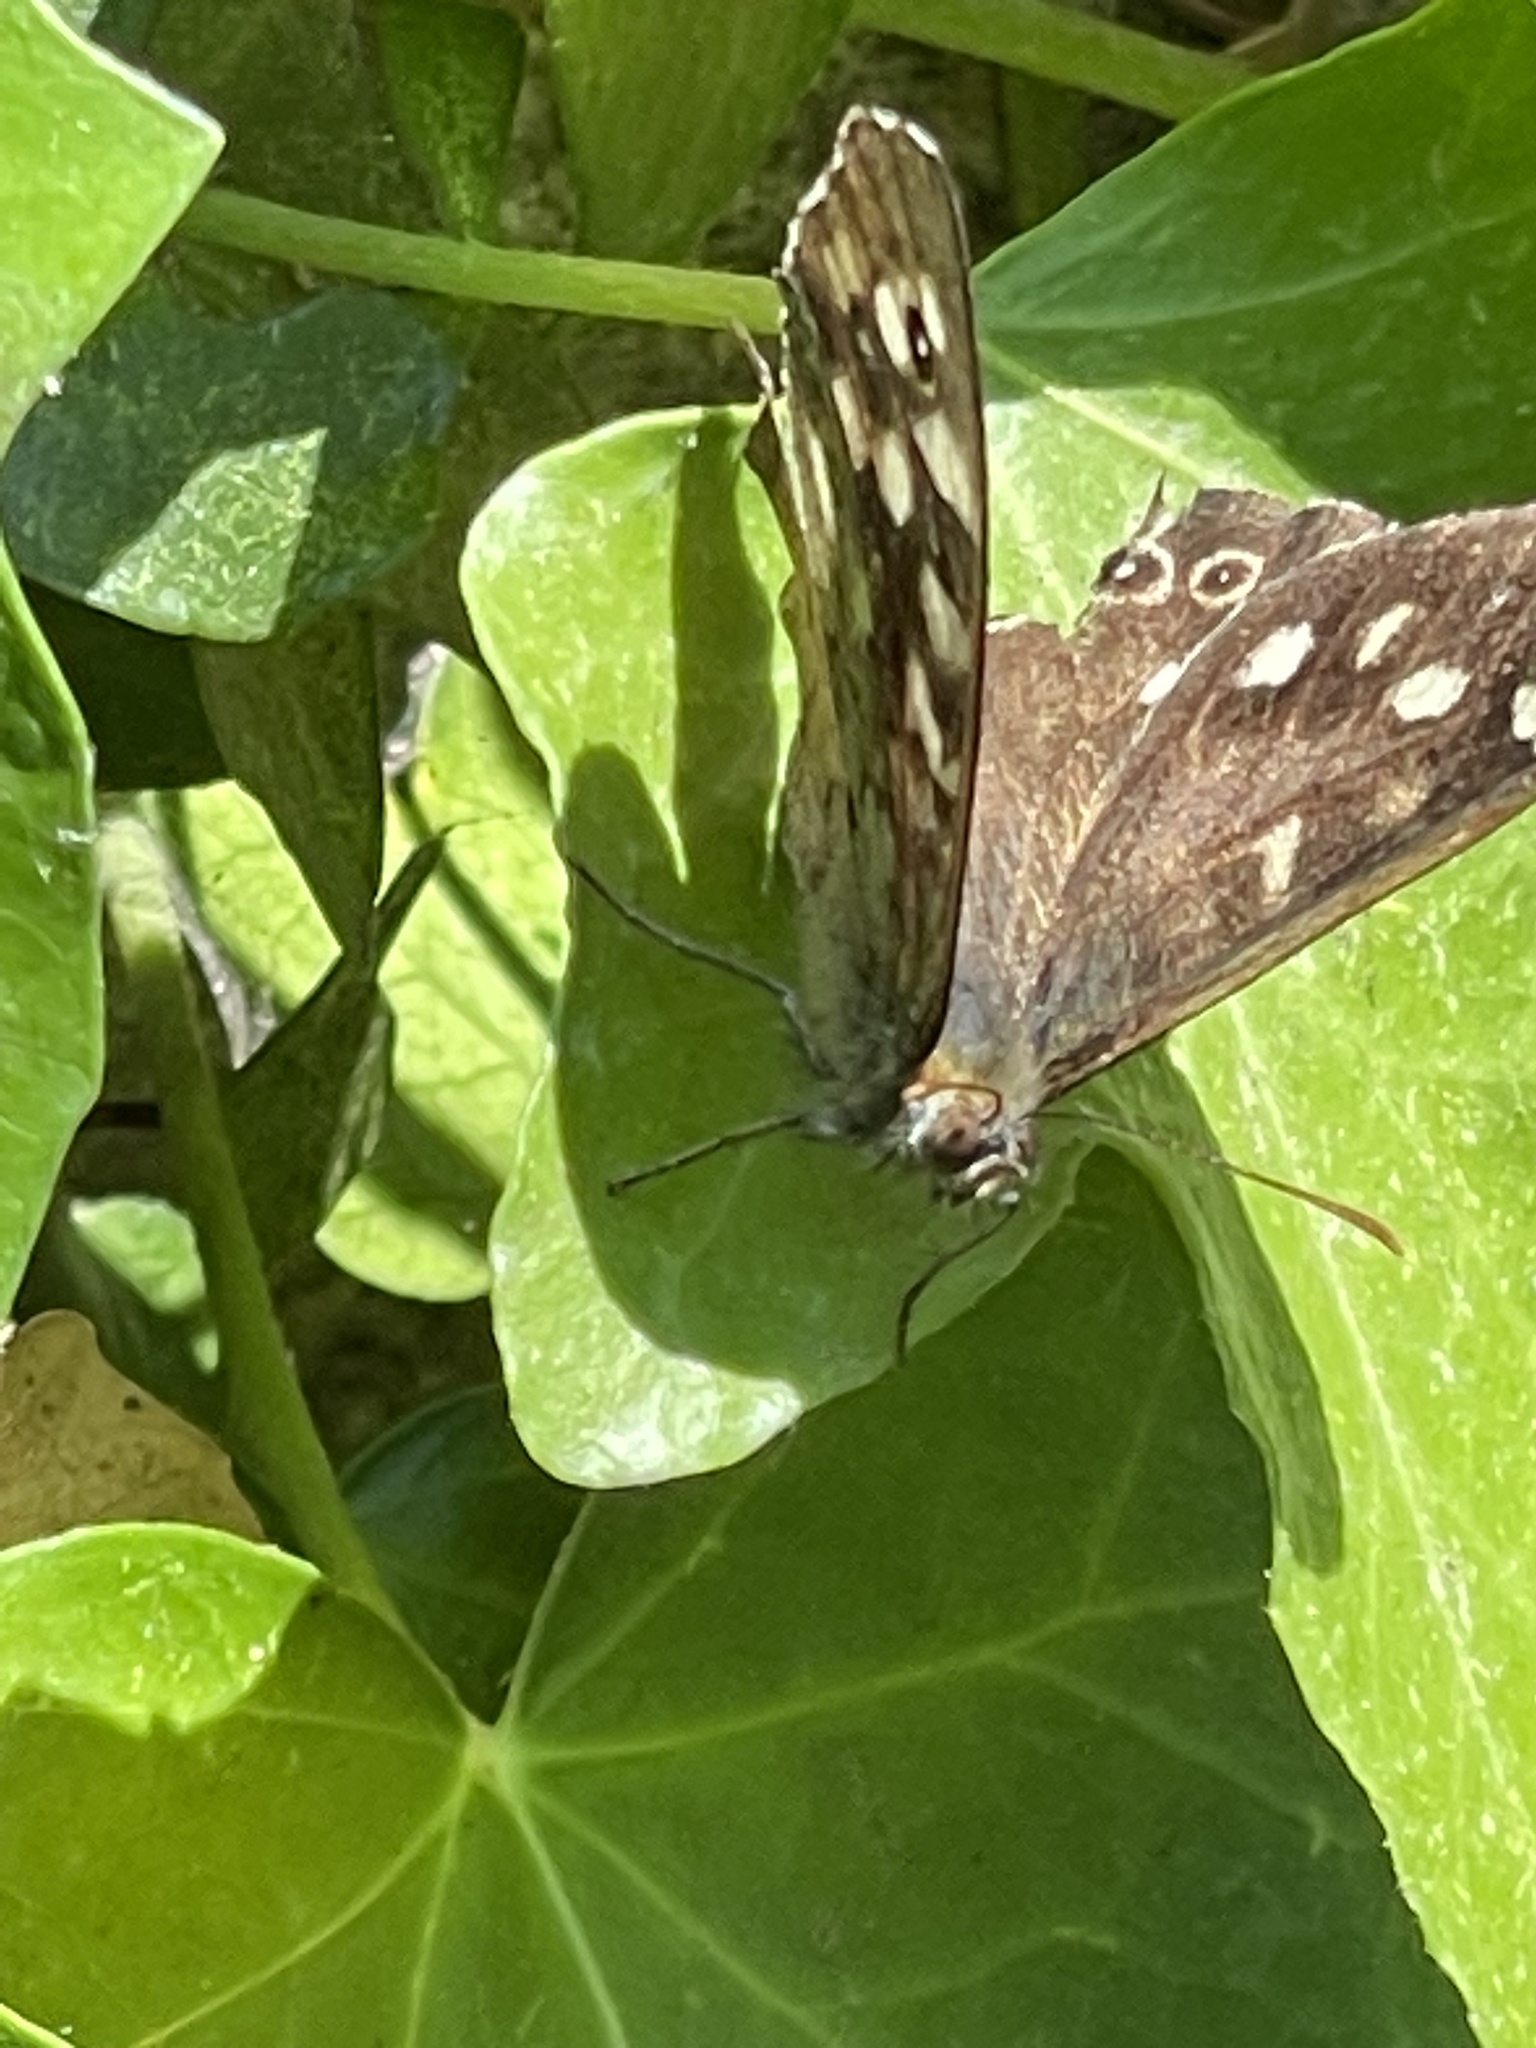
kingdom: Animalia
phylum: Arthropoda
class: Insecta
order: Lepidoptera
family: Nymphalidae
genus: Pararge
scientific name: Pararge aegeria
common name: Speckled wood
